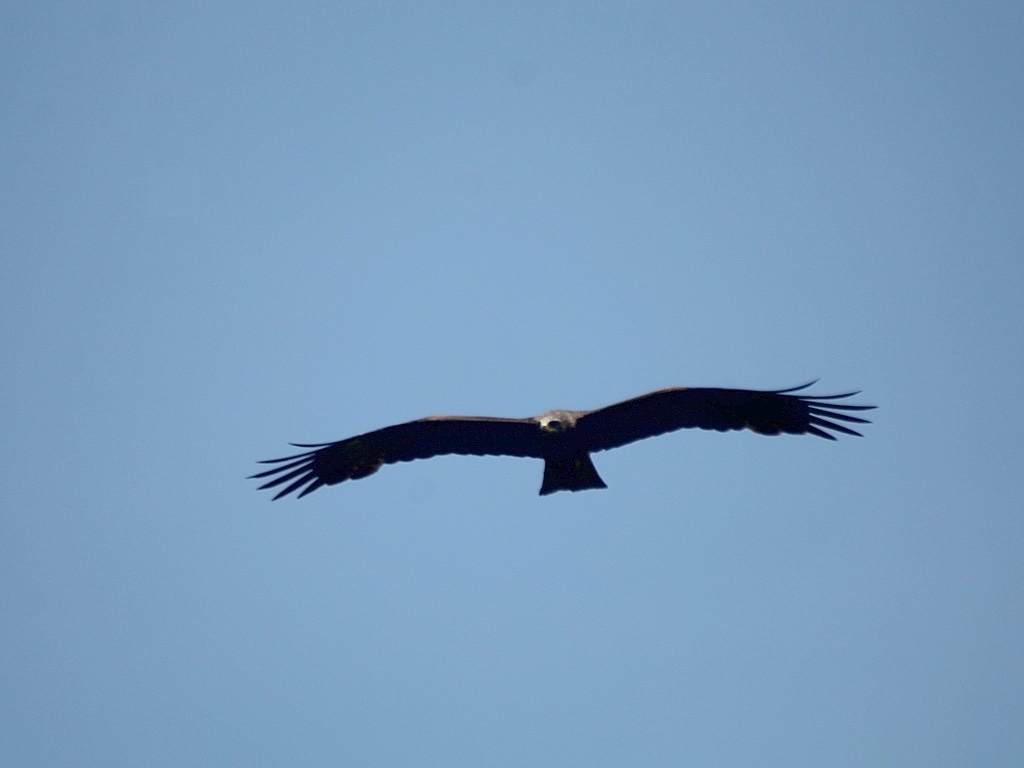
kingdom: Animalia
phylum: Chordata
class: Aves
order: Accipitriformes
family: Accipitridae
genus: Milvus
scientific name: Milvus migrans
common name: Black kite
